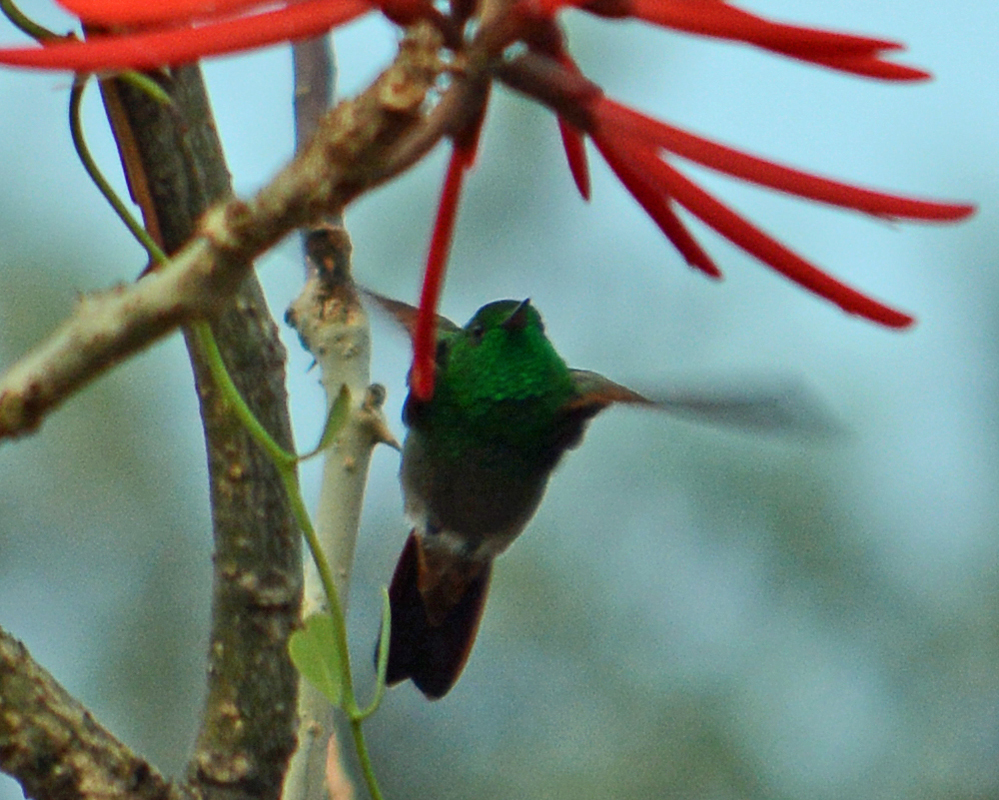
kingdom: Animalia
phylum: Chordata
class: Aves
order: Apodiformes
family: Trochilidae
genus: Saucerottia
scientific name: Saucerottia beryllina
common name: Berylline hummingbird
